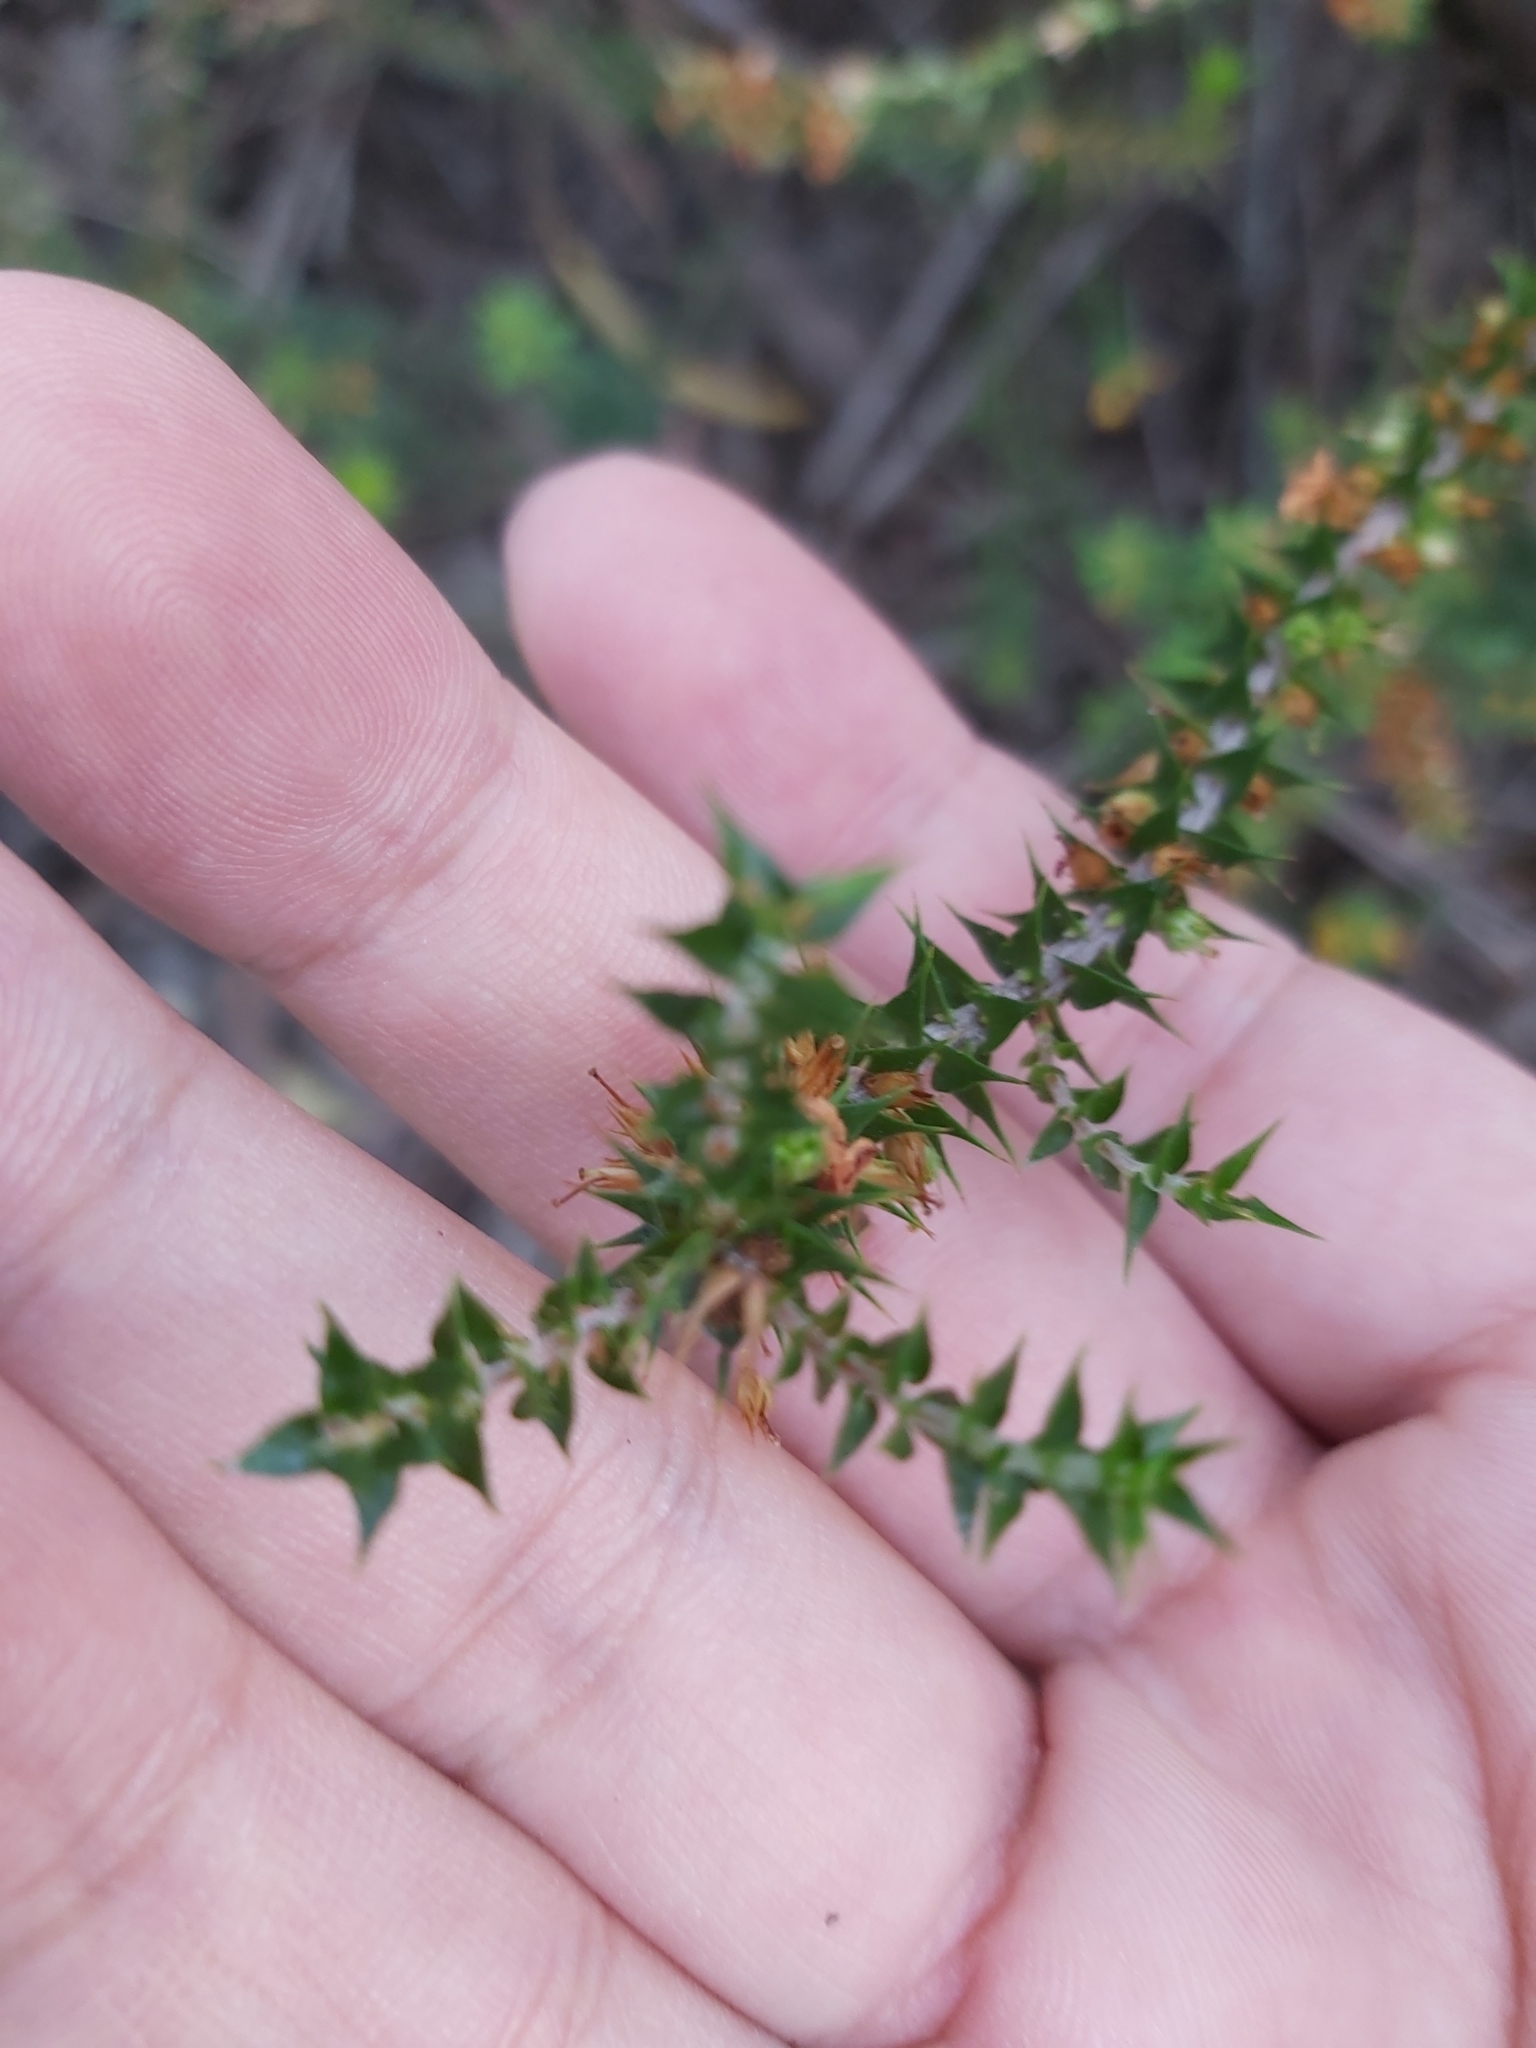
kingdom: Plantae
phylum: Tracheophyta
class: Magnoliopsida
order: Ericales
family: Ericaceae
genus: Epacris
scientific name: Epacris pulchella
